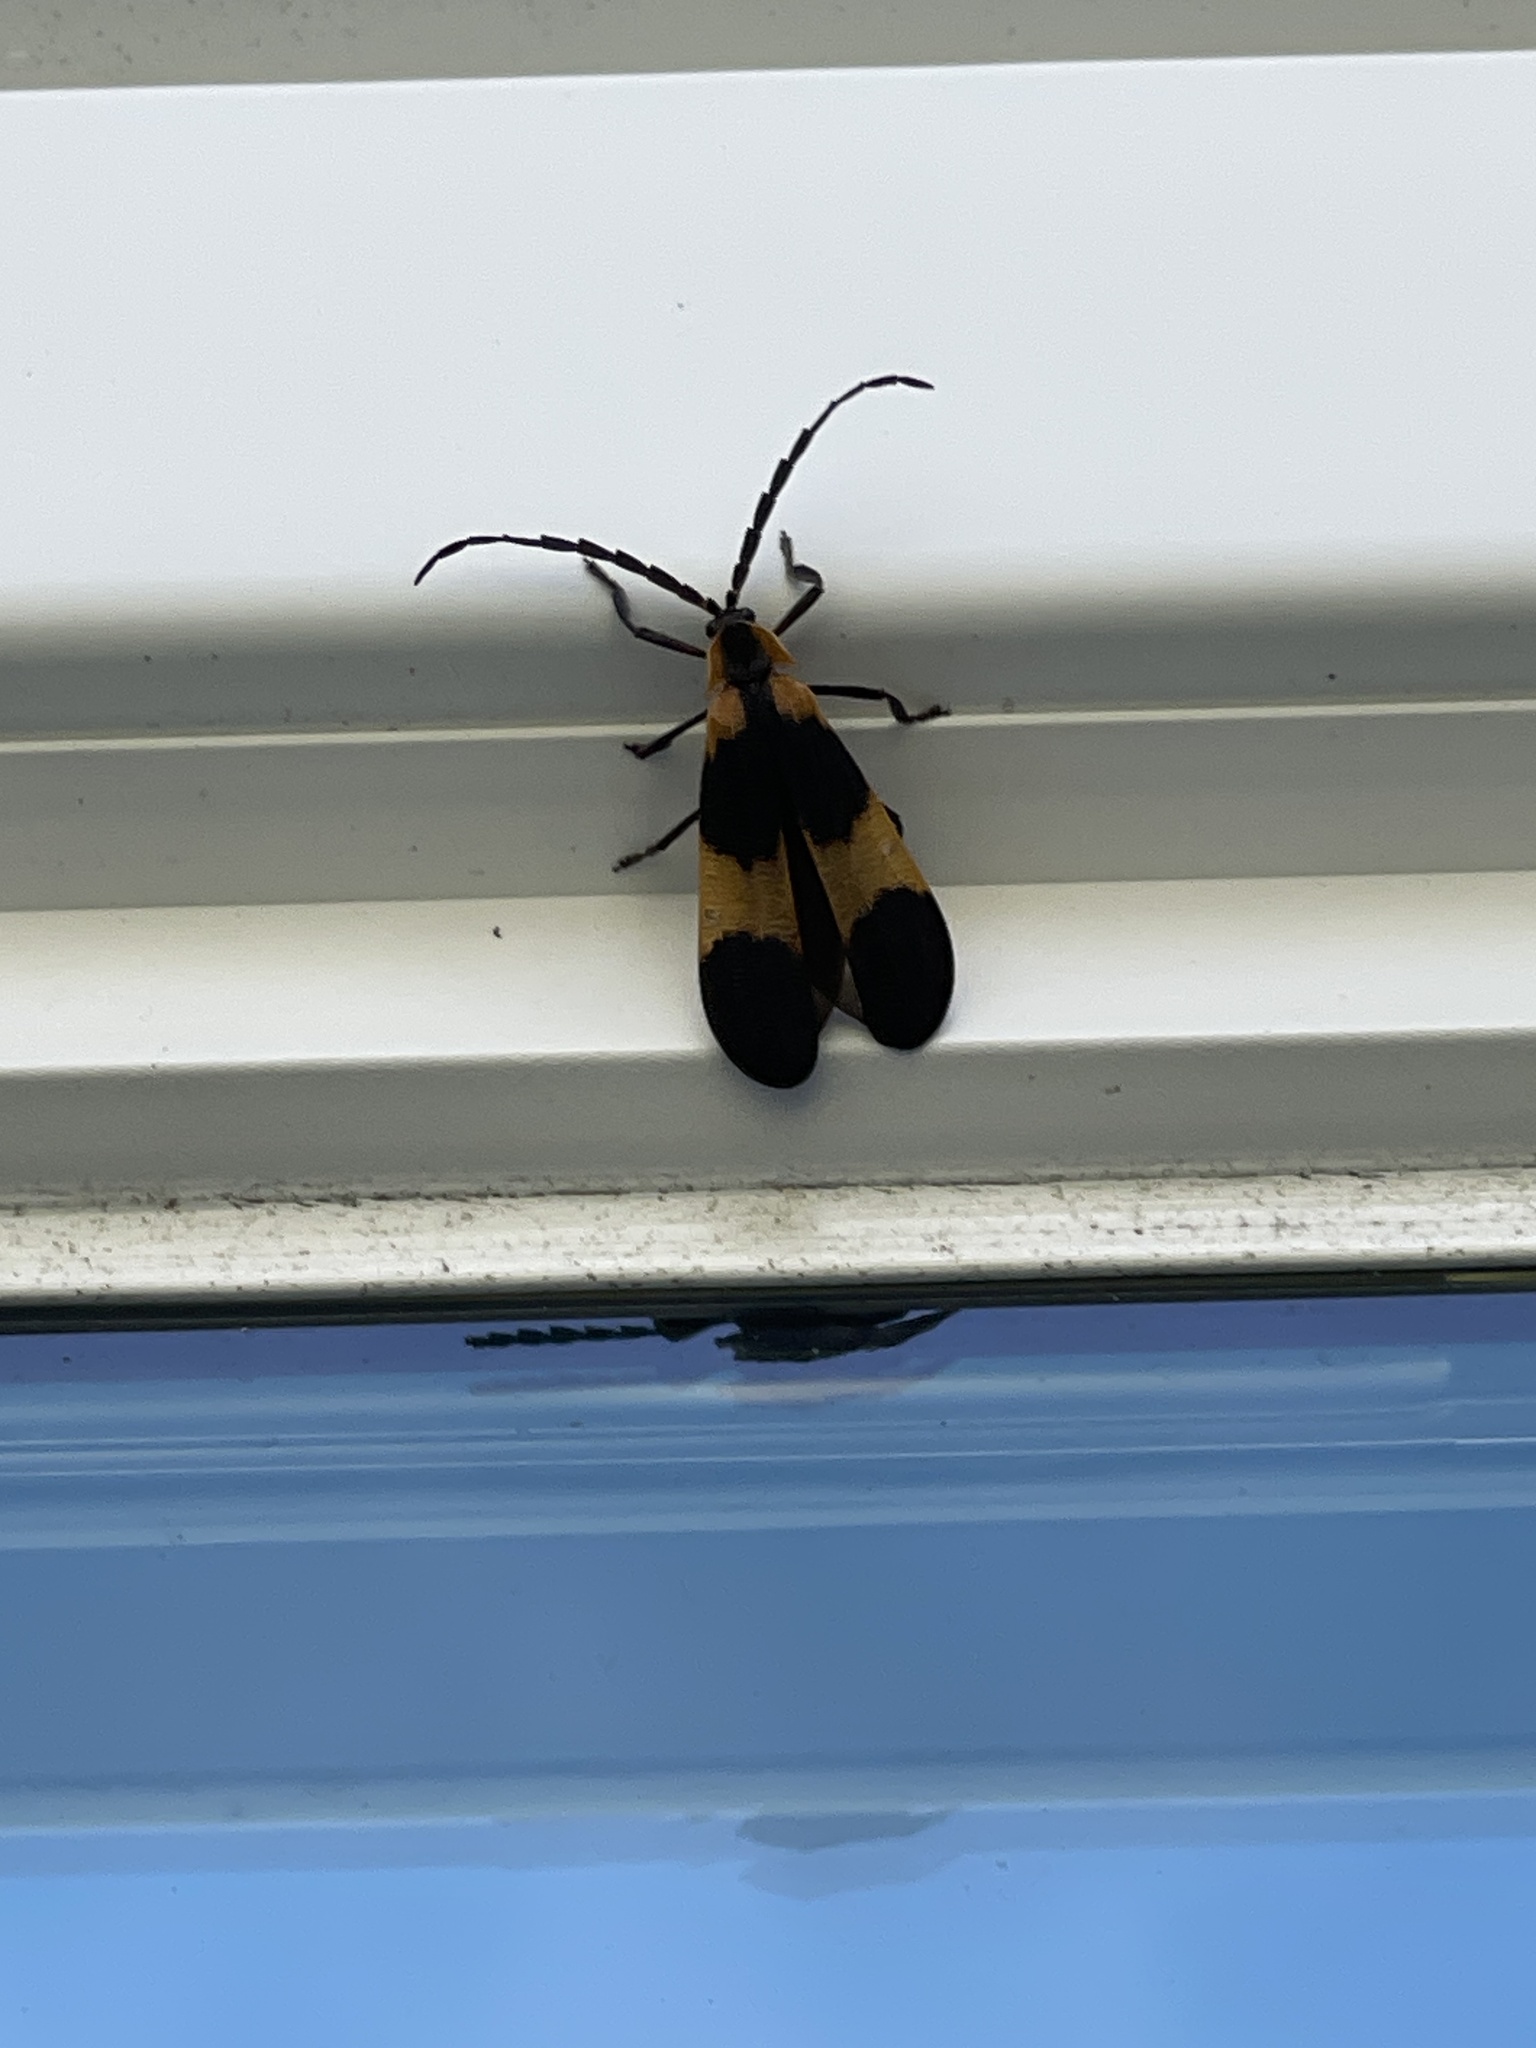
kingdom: Animalia
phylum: Arthropoda
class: Insecta
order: Coleoptera
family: Lycidae
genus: Calopteron
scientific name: Calopteron reticulatum
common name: Banded net-winged beetle
